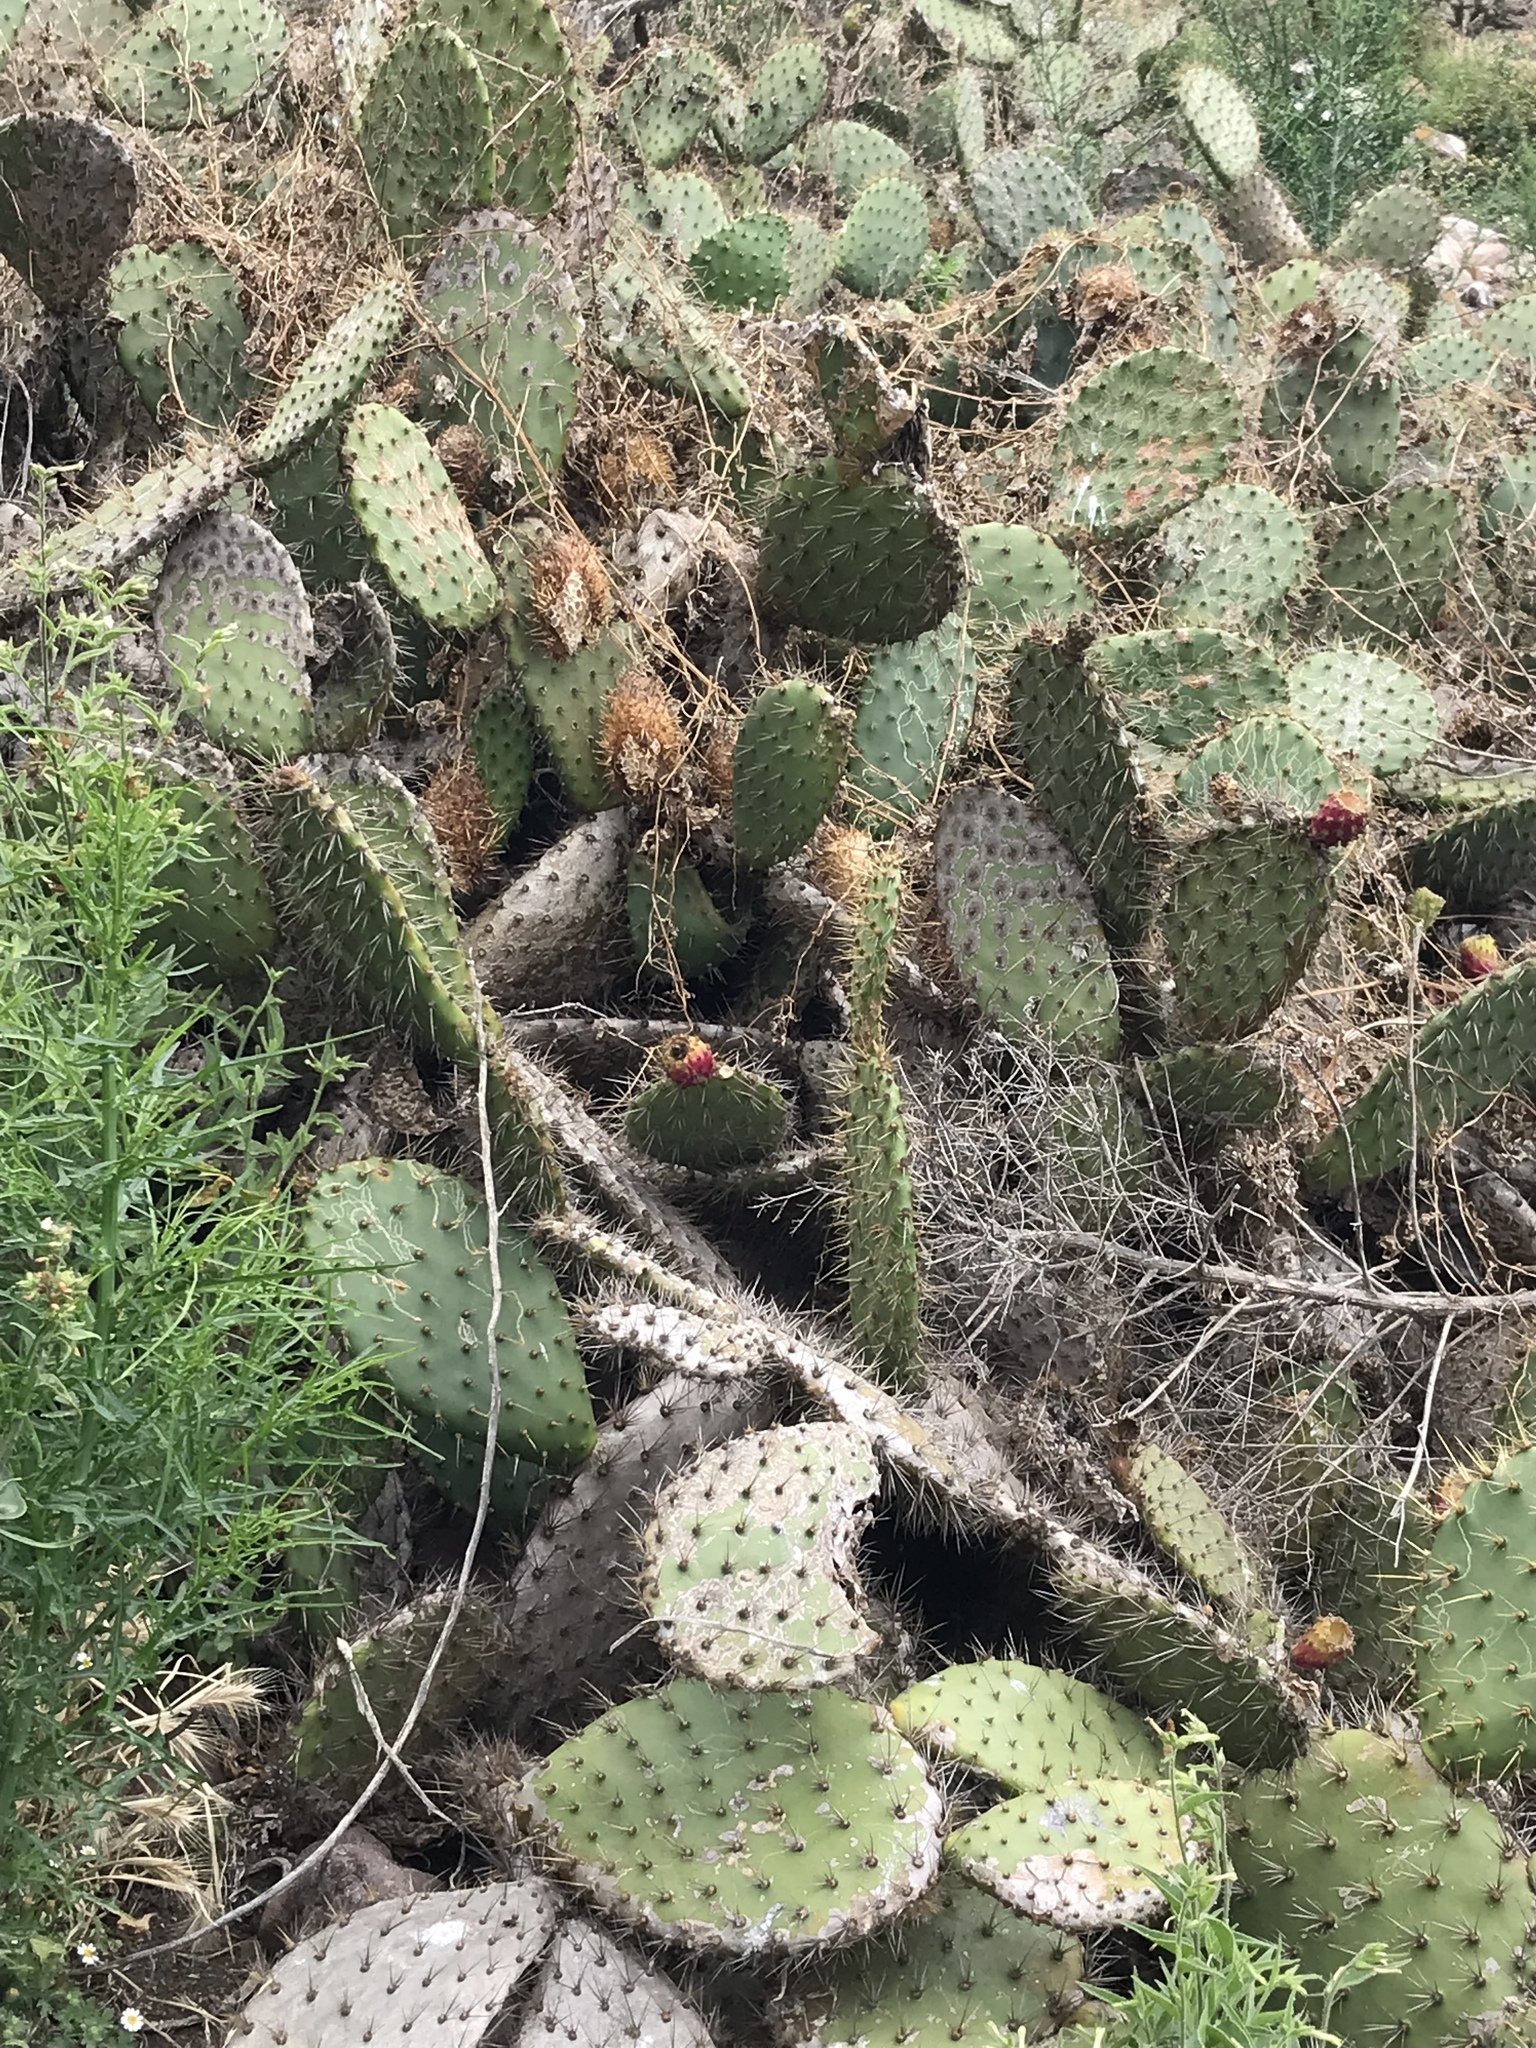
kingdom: Plantae
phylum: Tracheophyta
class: Magnoliopsida
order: Cucurbitales
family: Cucurbitaceae
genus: Marah
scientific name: Marah macrocarpa
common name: Cucamonga manroot
